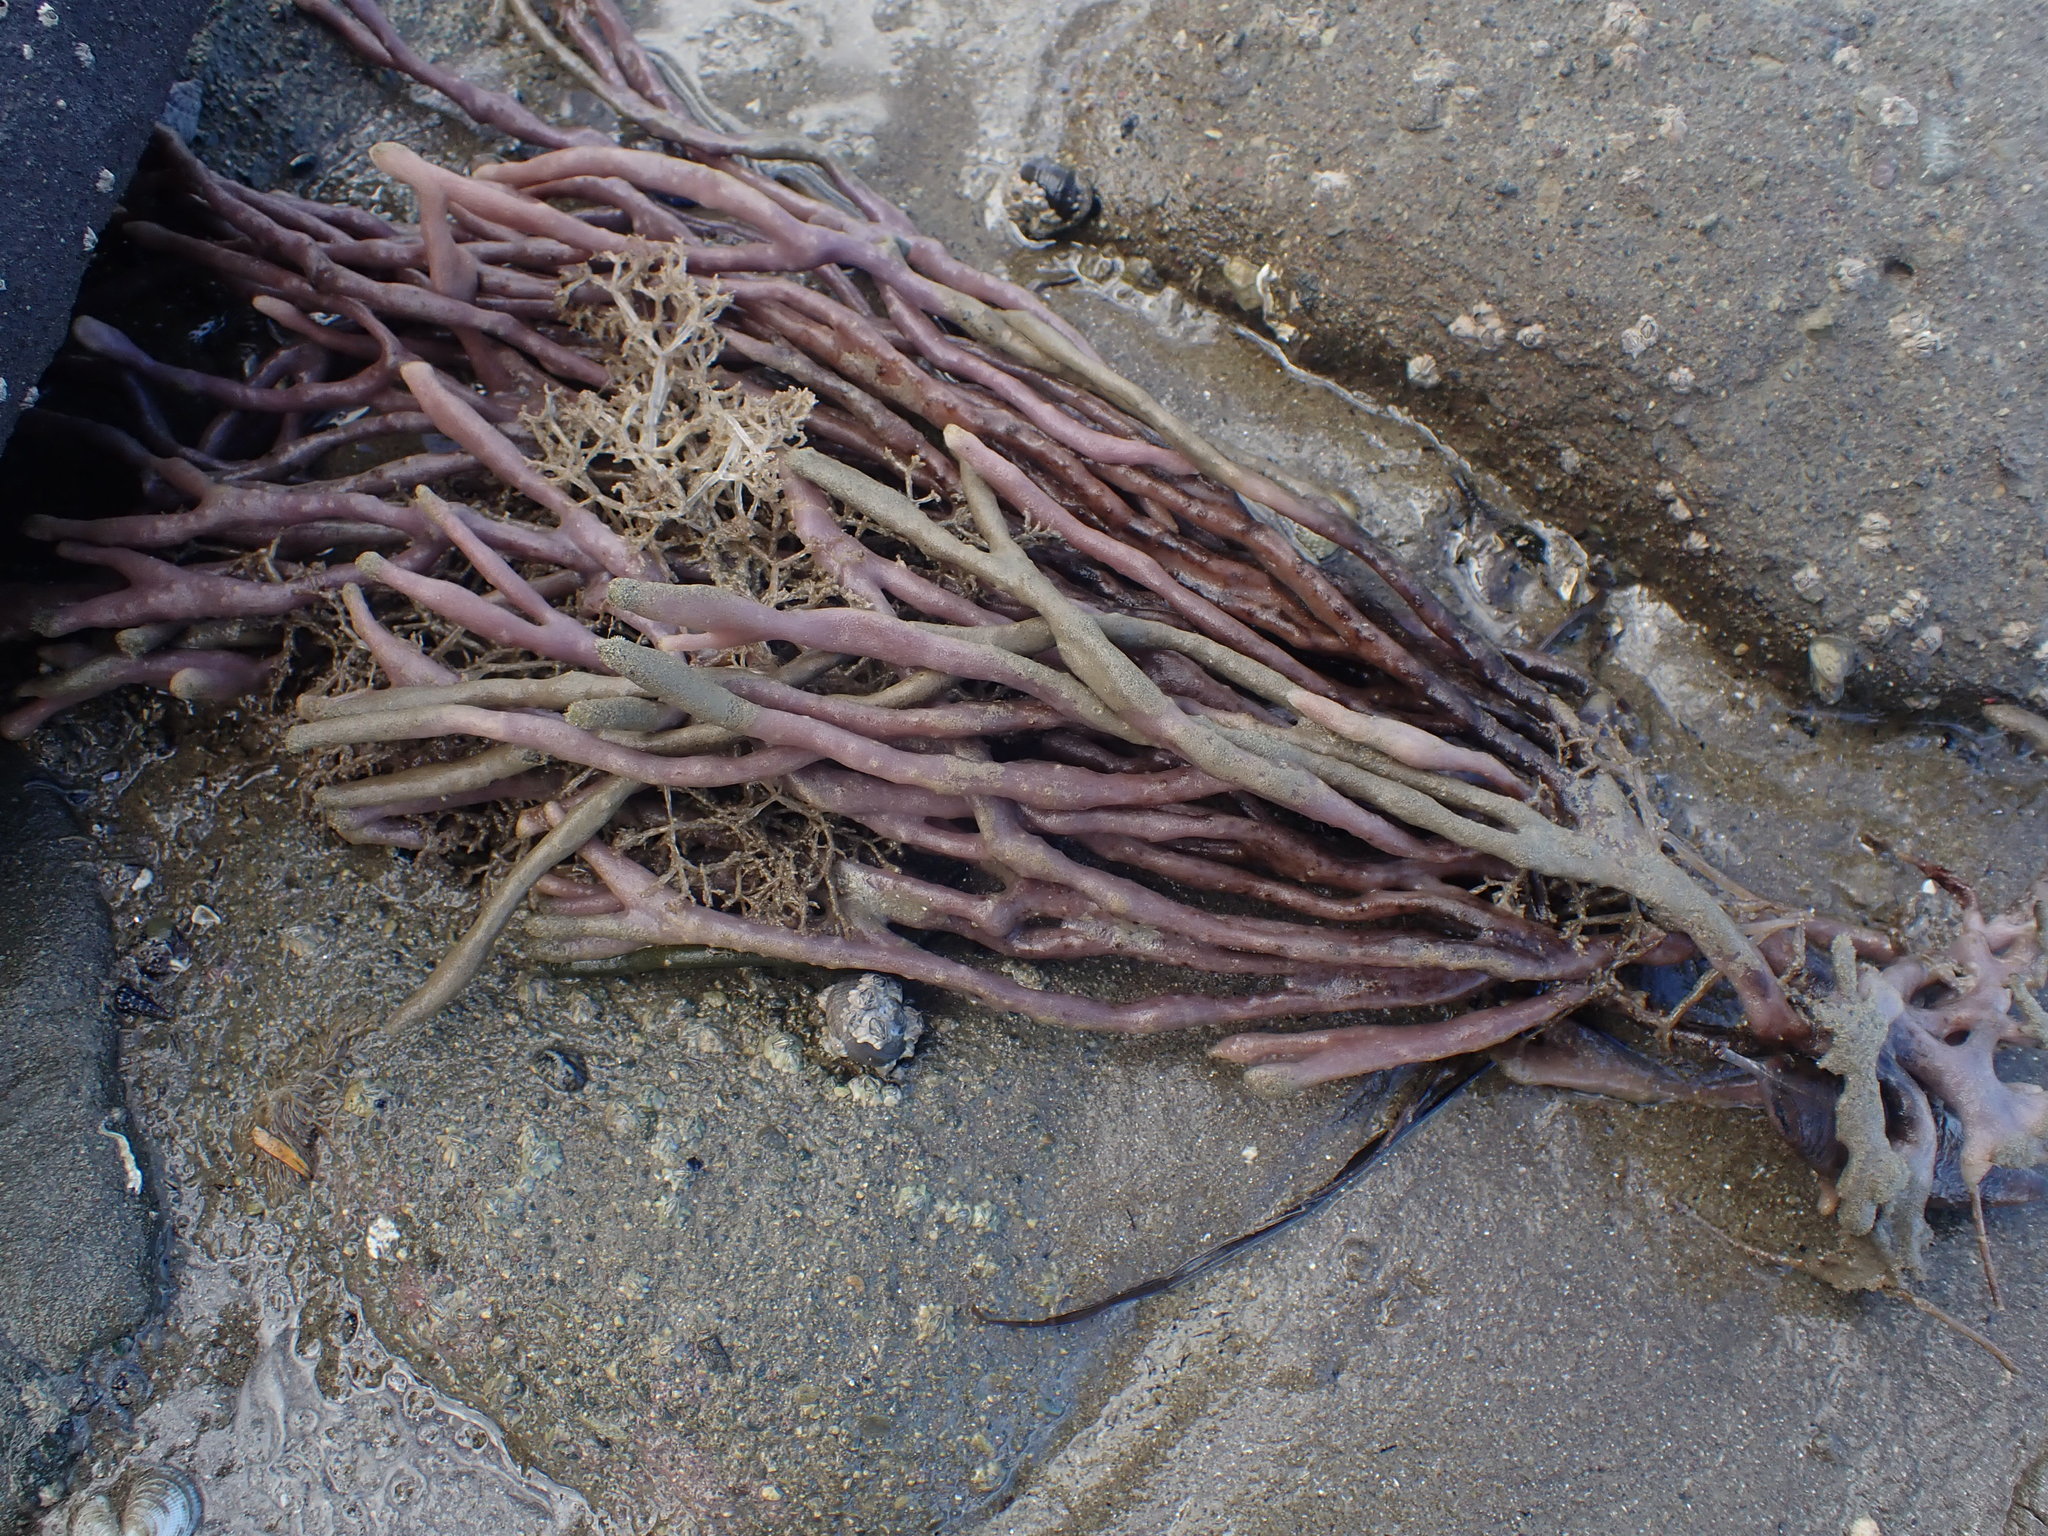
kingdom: Animalia
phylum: Porifera
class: Demospongiae
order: Haplosclerida
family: Callyspongiidae
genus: Callyspongia
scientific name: Callyspongia nuda
